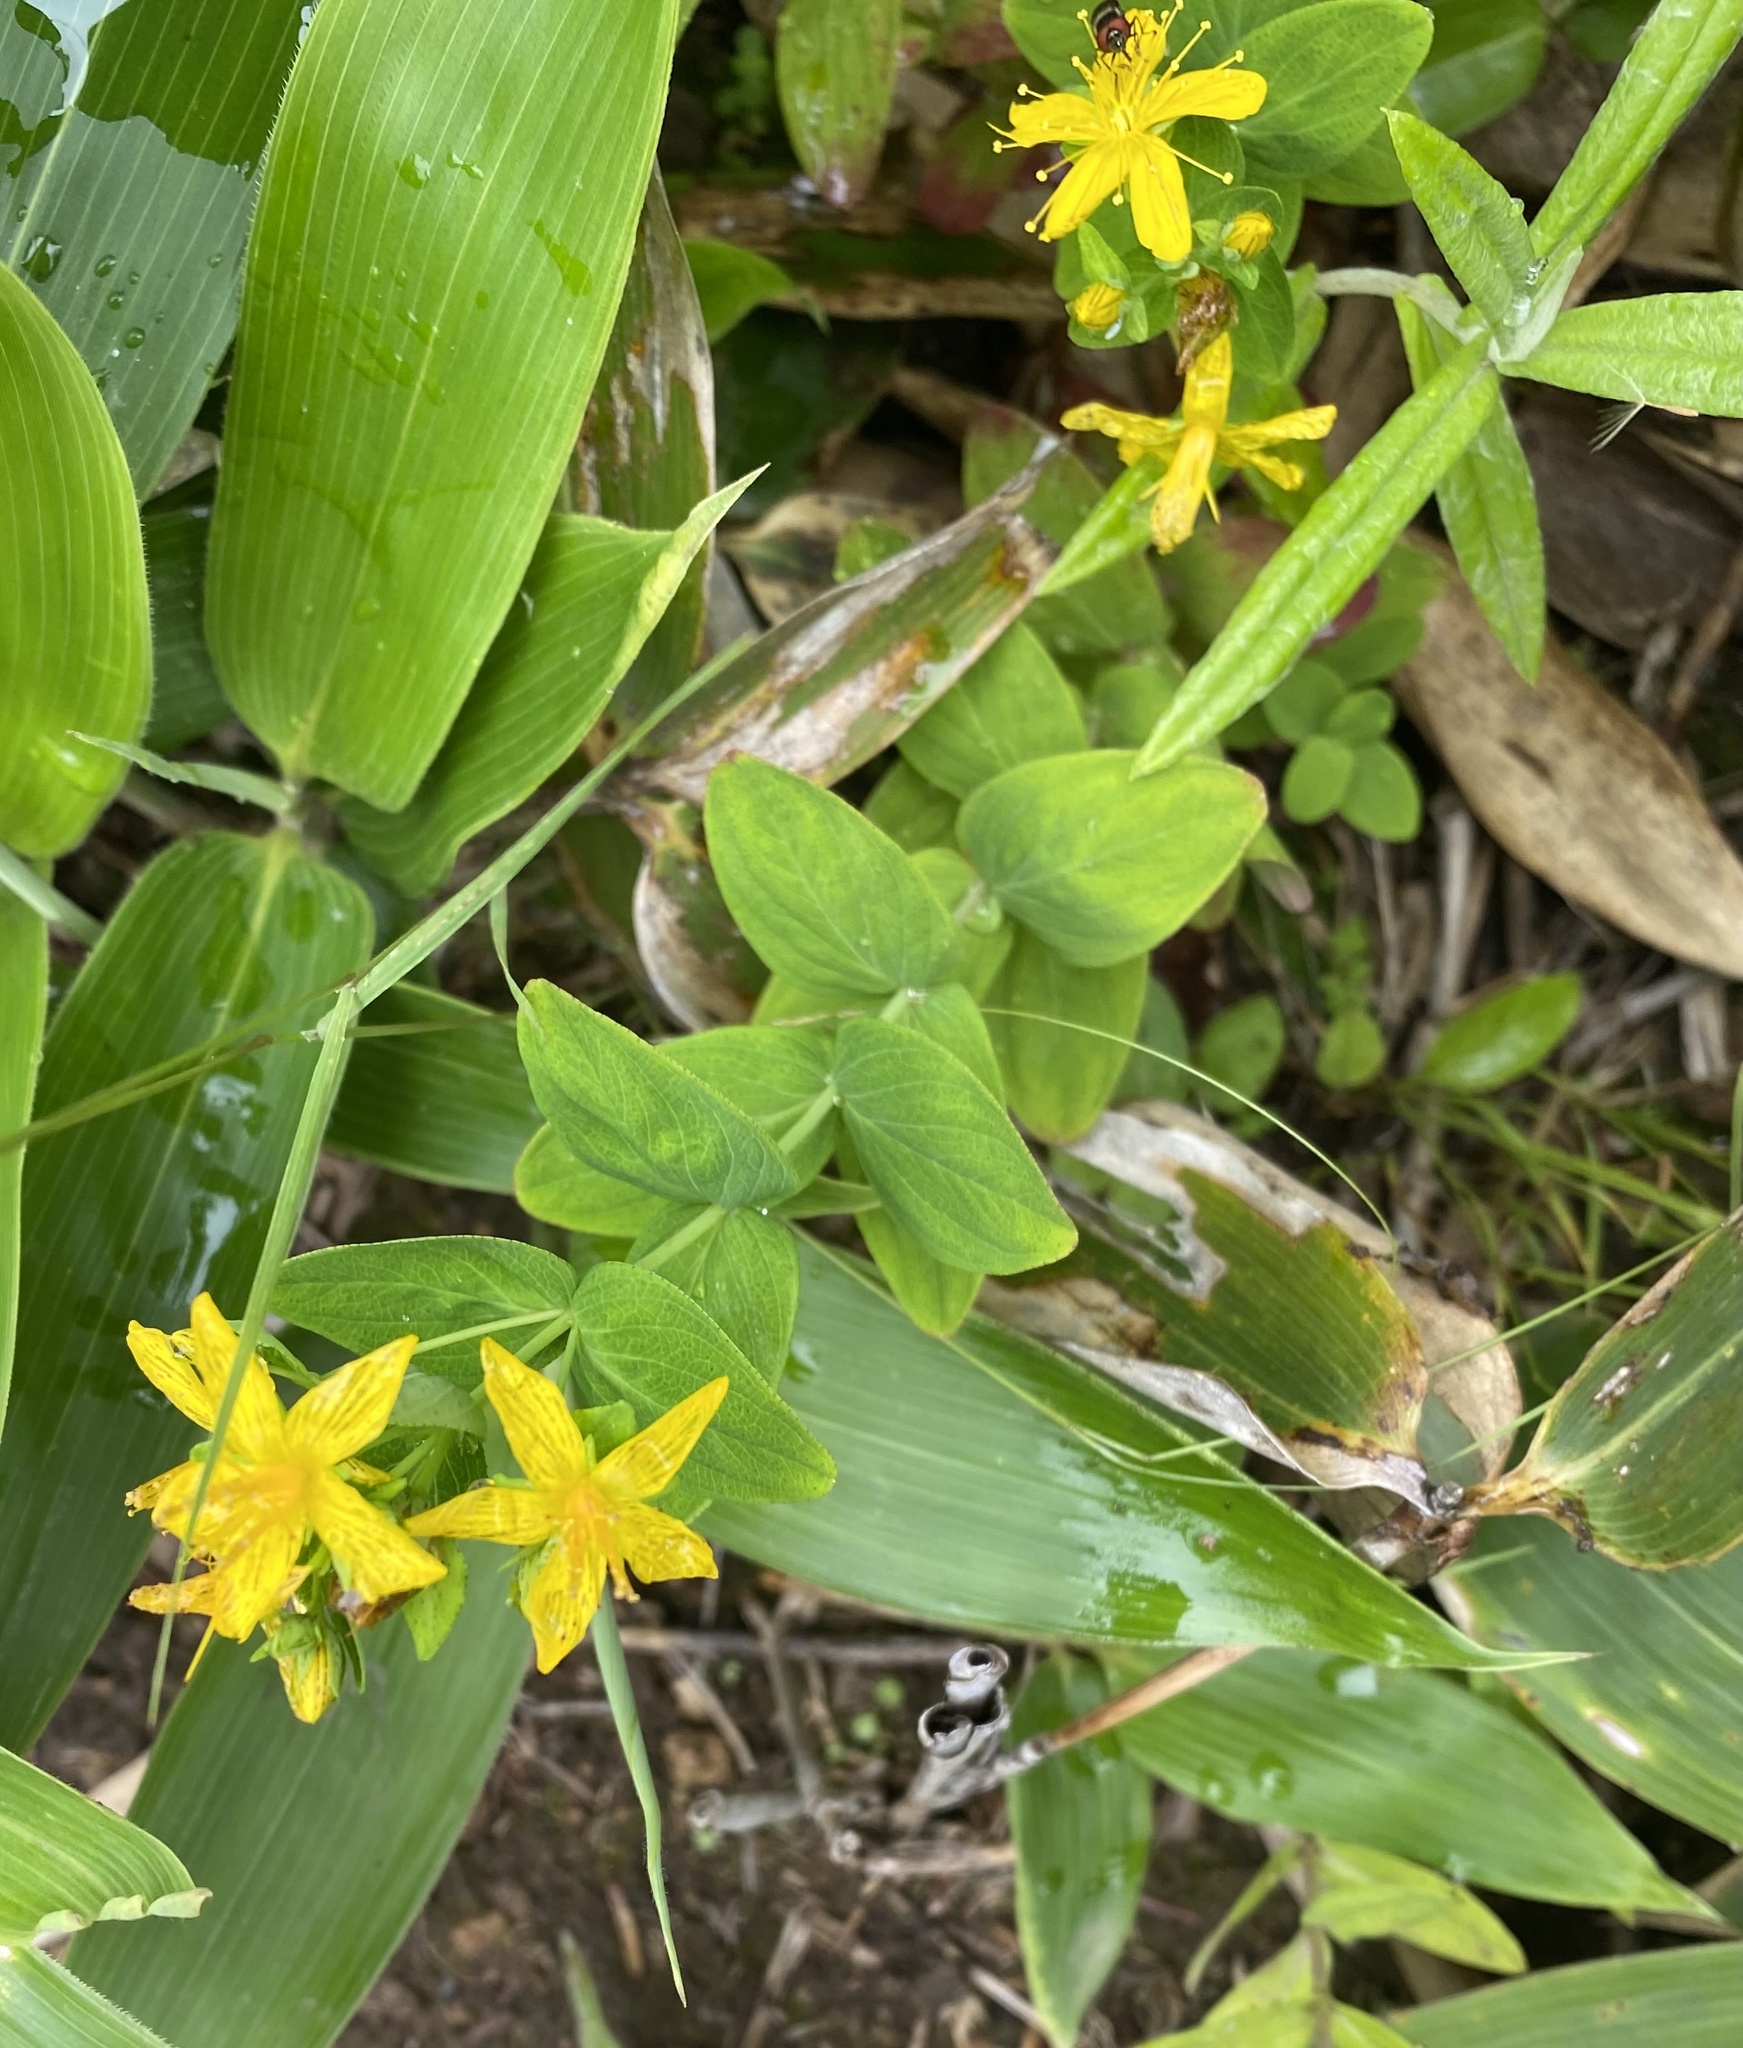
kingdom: Plantae
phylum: Tracheophyta
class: Magnoliopsida
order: Malpighiales
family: Hypericaceae
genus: Hypericum
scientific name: Hypericum kamtschaticum
